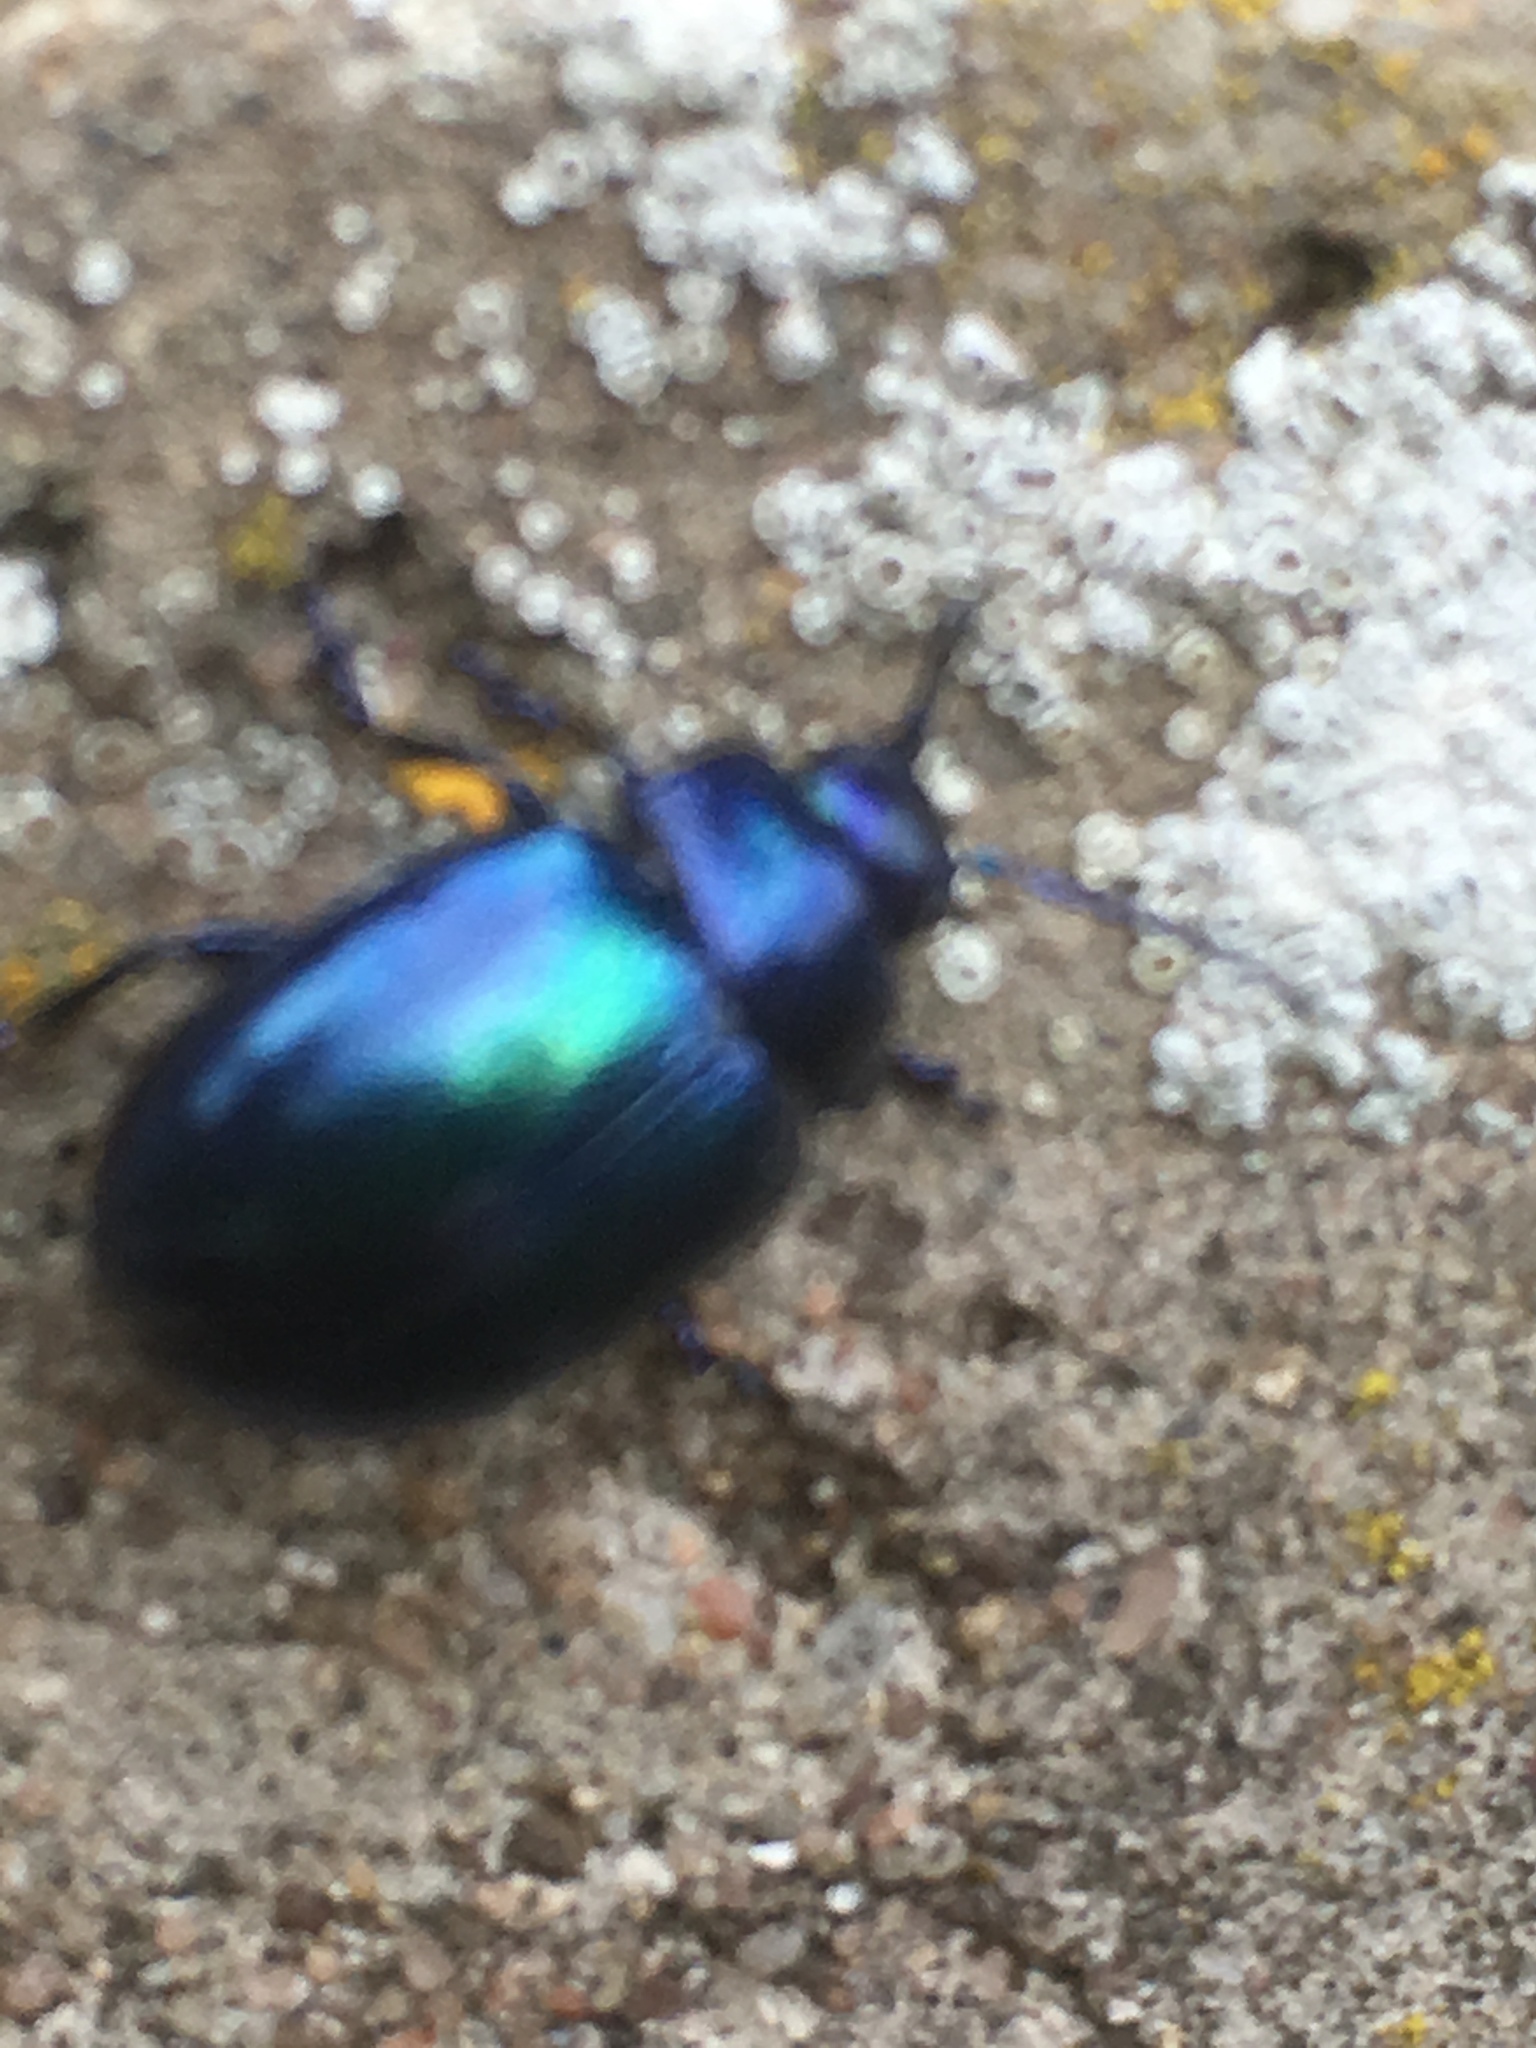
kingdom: Animalia
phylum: Arthropoda
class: Insecta
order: Coleoptera
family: Chrysomelidae
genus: Chrysolina
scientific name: Chrysolina coerulans
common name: Blue mint beetle
